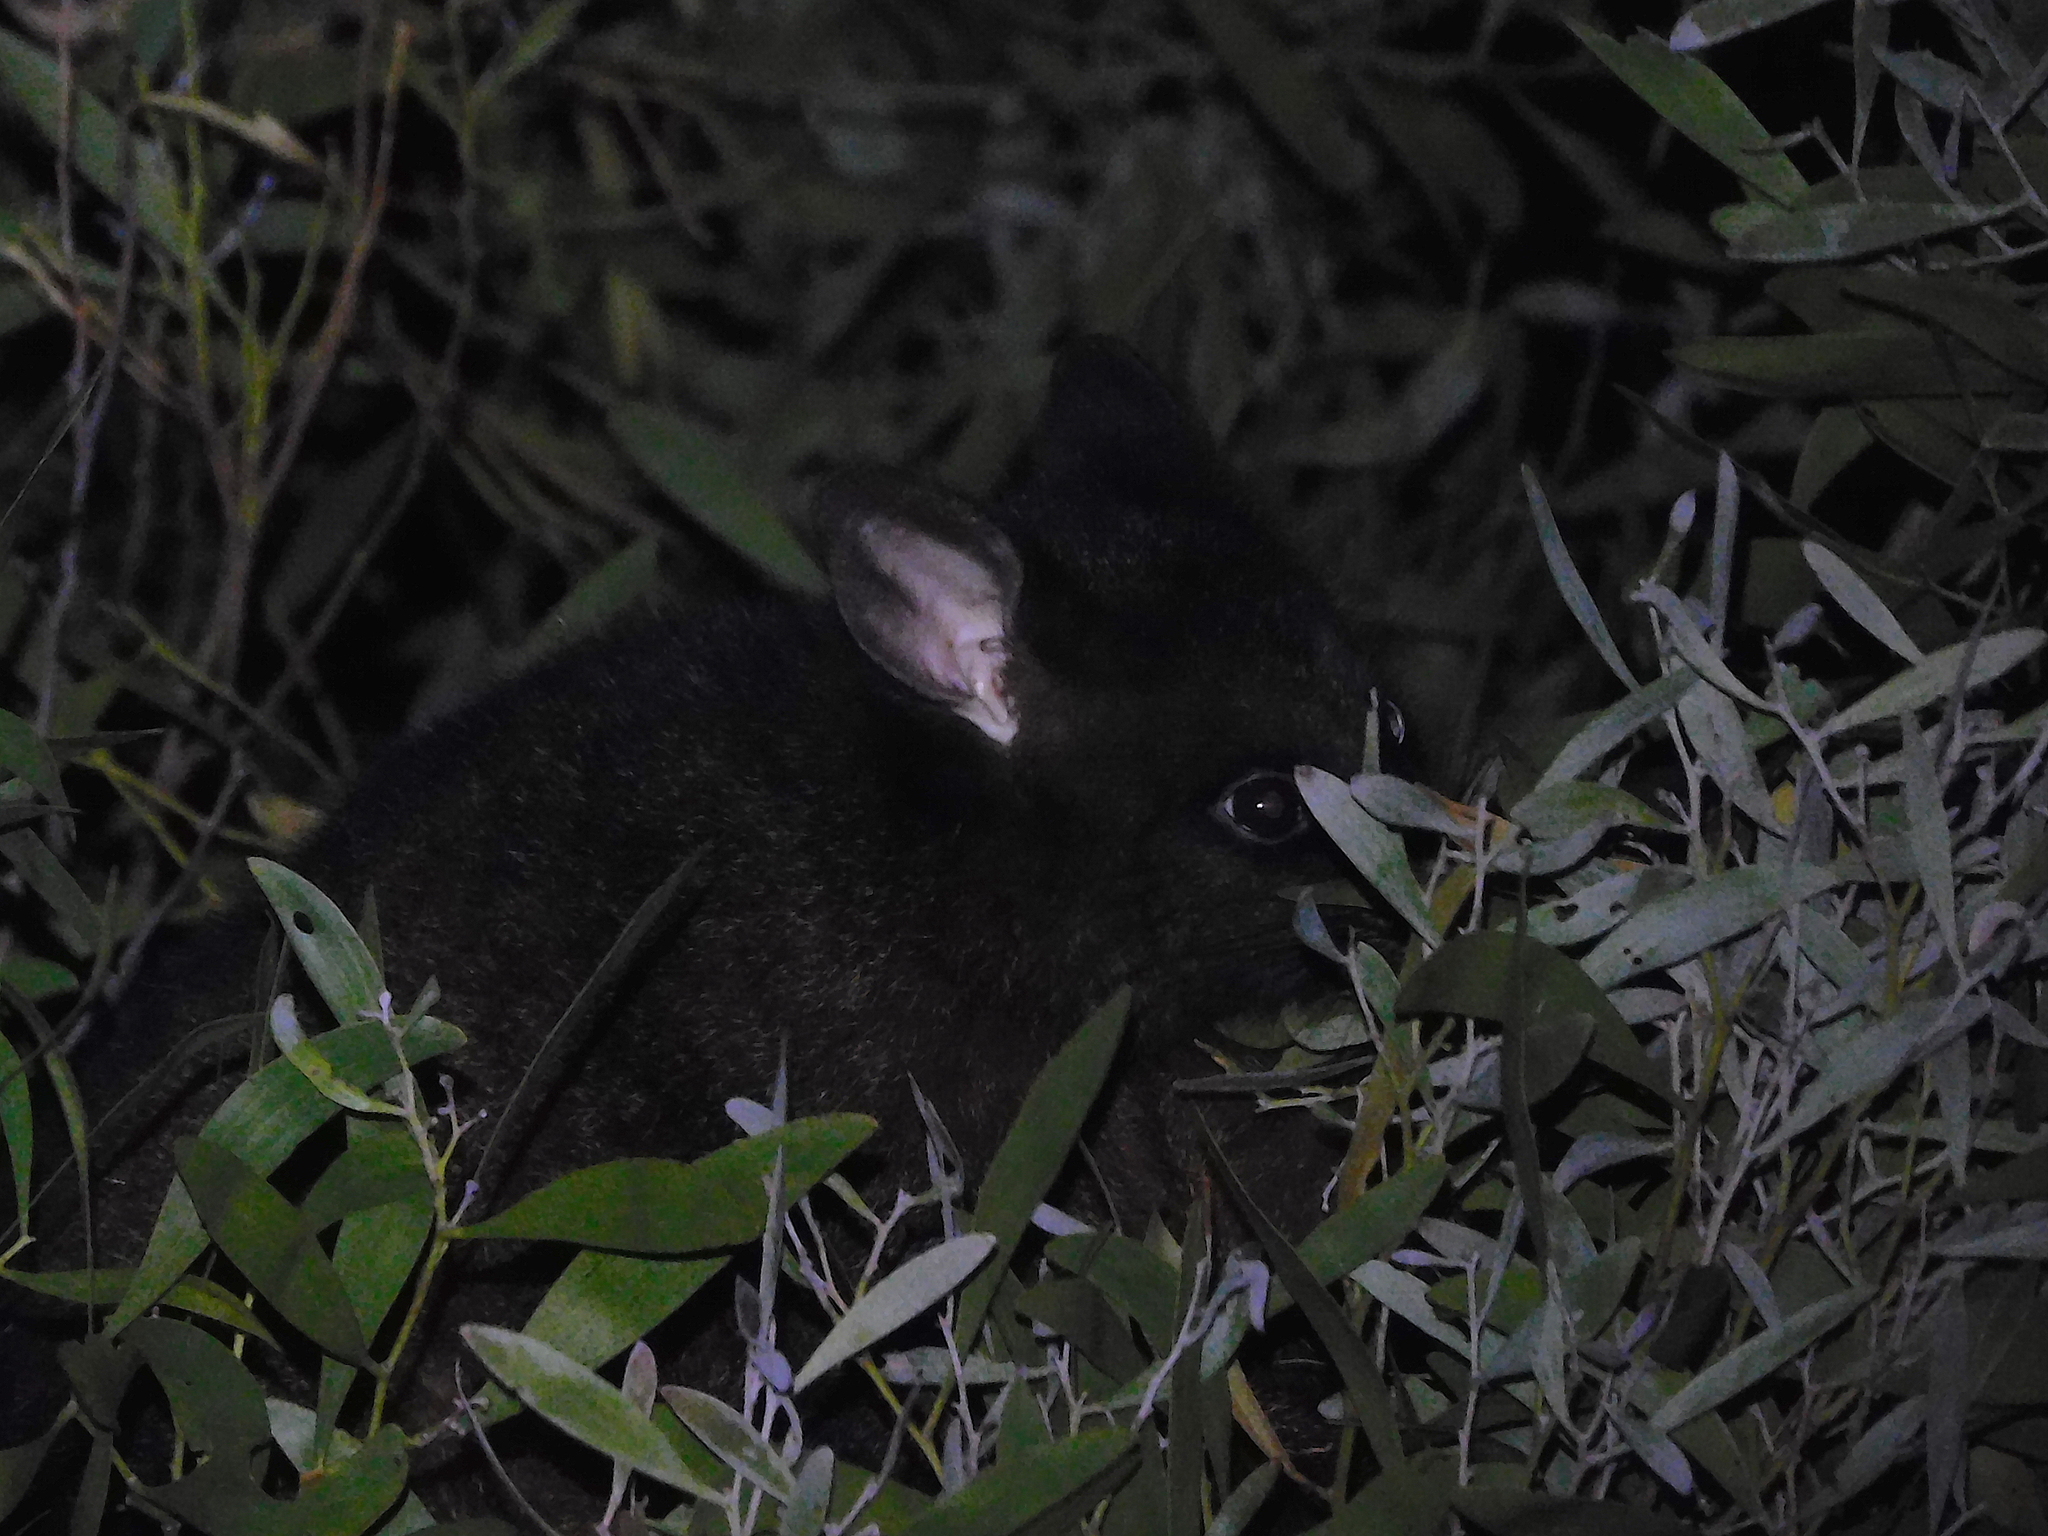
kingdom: Animalia
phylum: Chordata
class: Mammalia
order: Diprotodontia
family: Phalangeridae
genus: Trichosurus
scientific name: Trichosurus vulpecula
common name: Common brushtail
